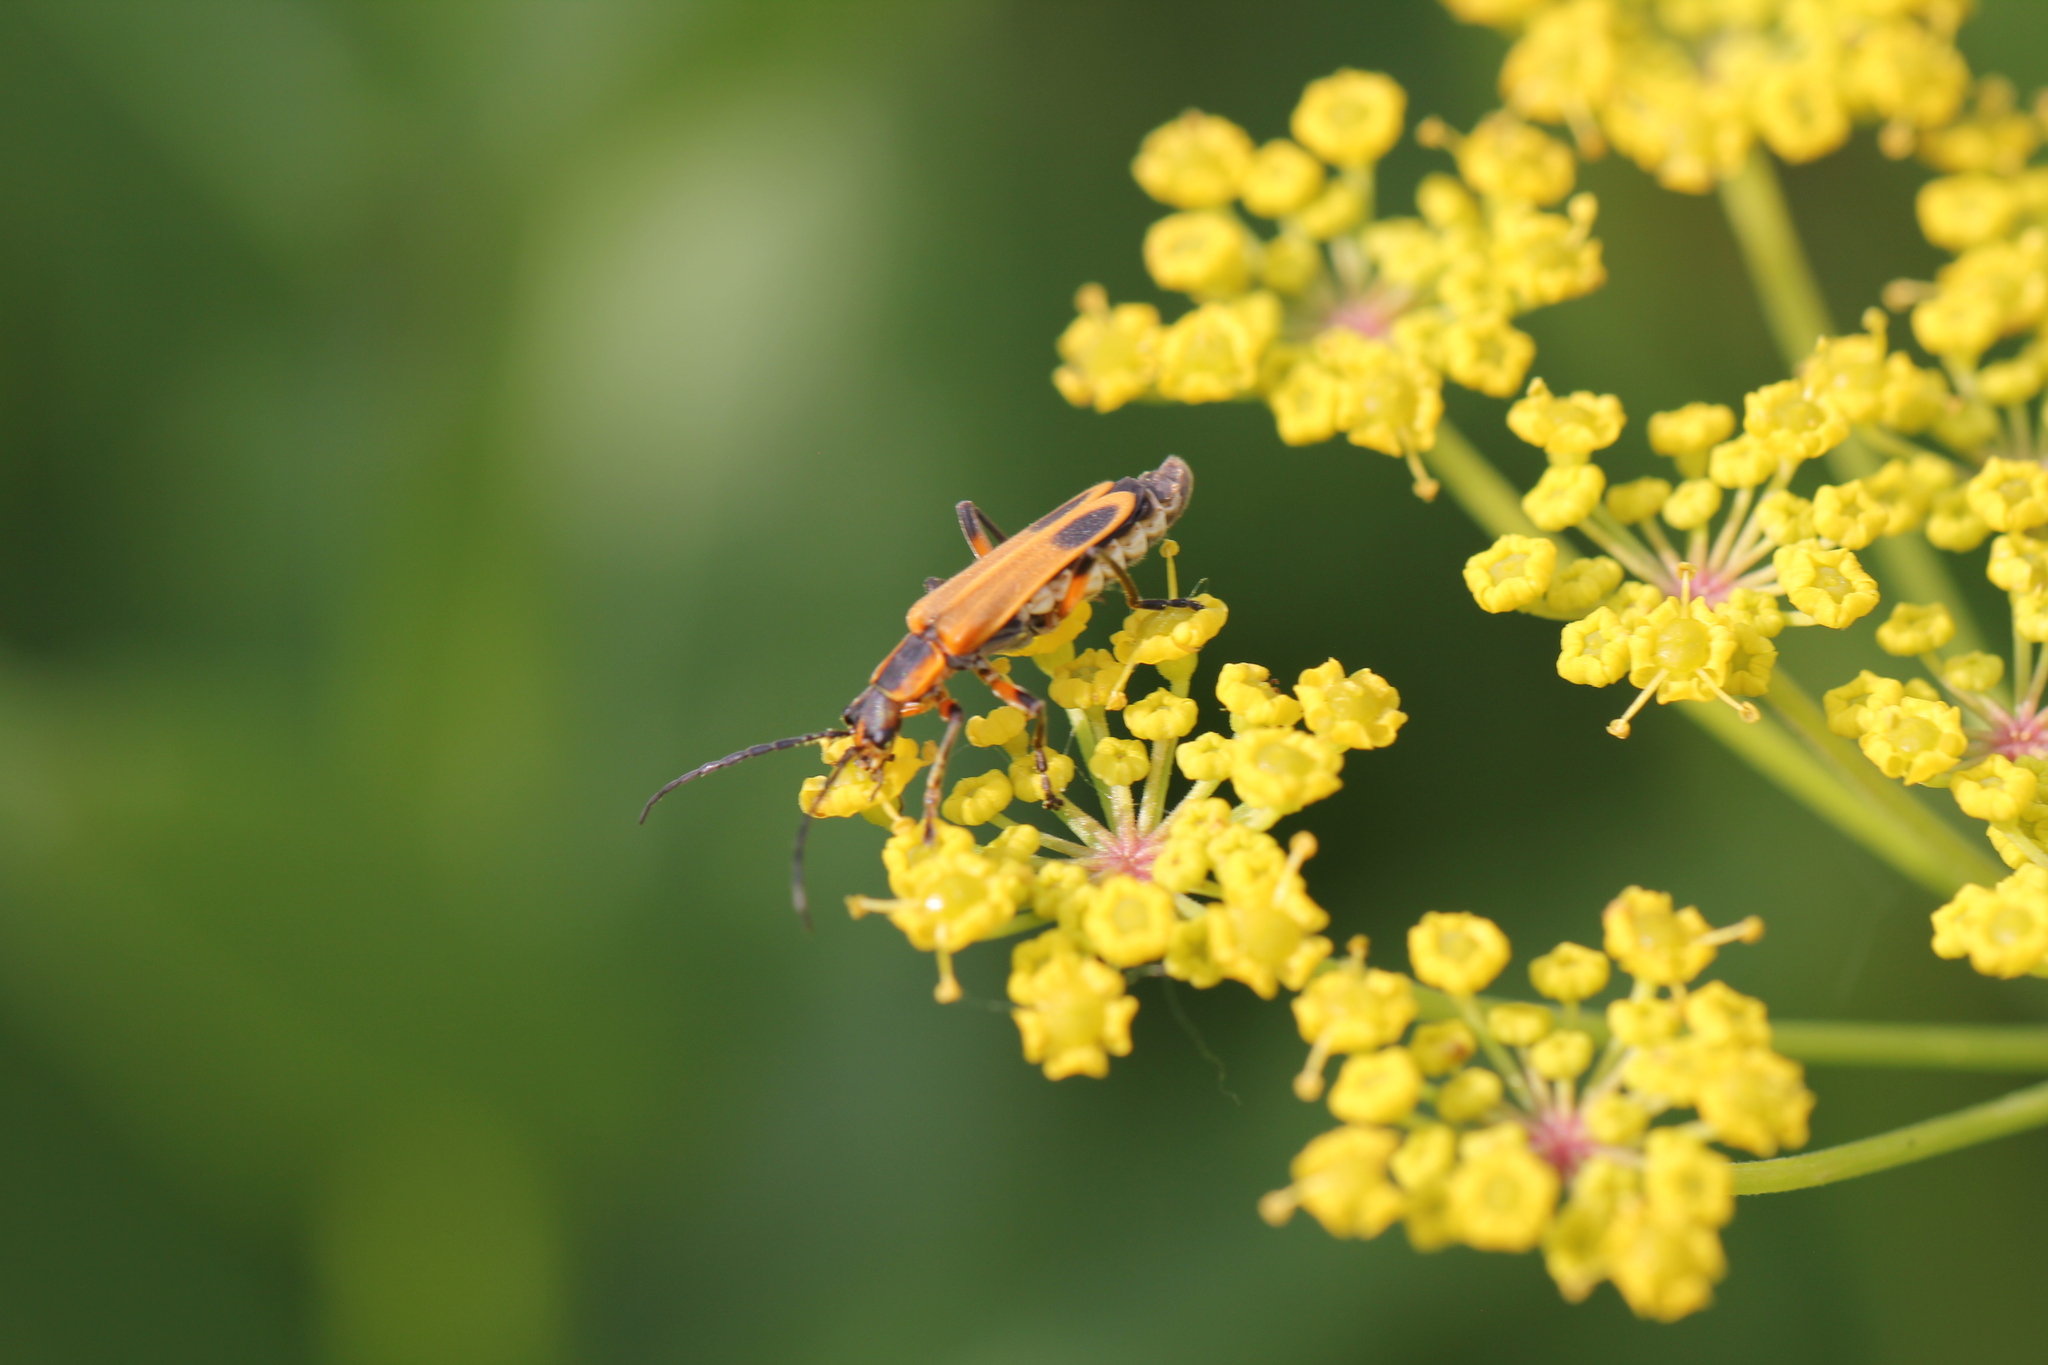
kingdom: Animalia
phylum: Arthropoda
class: Insecta
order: Coleoptera
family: Cantharidae
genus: Chauliognathus
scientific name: Chauliognathus marginatus
